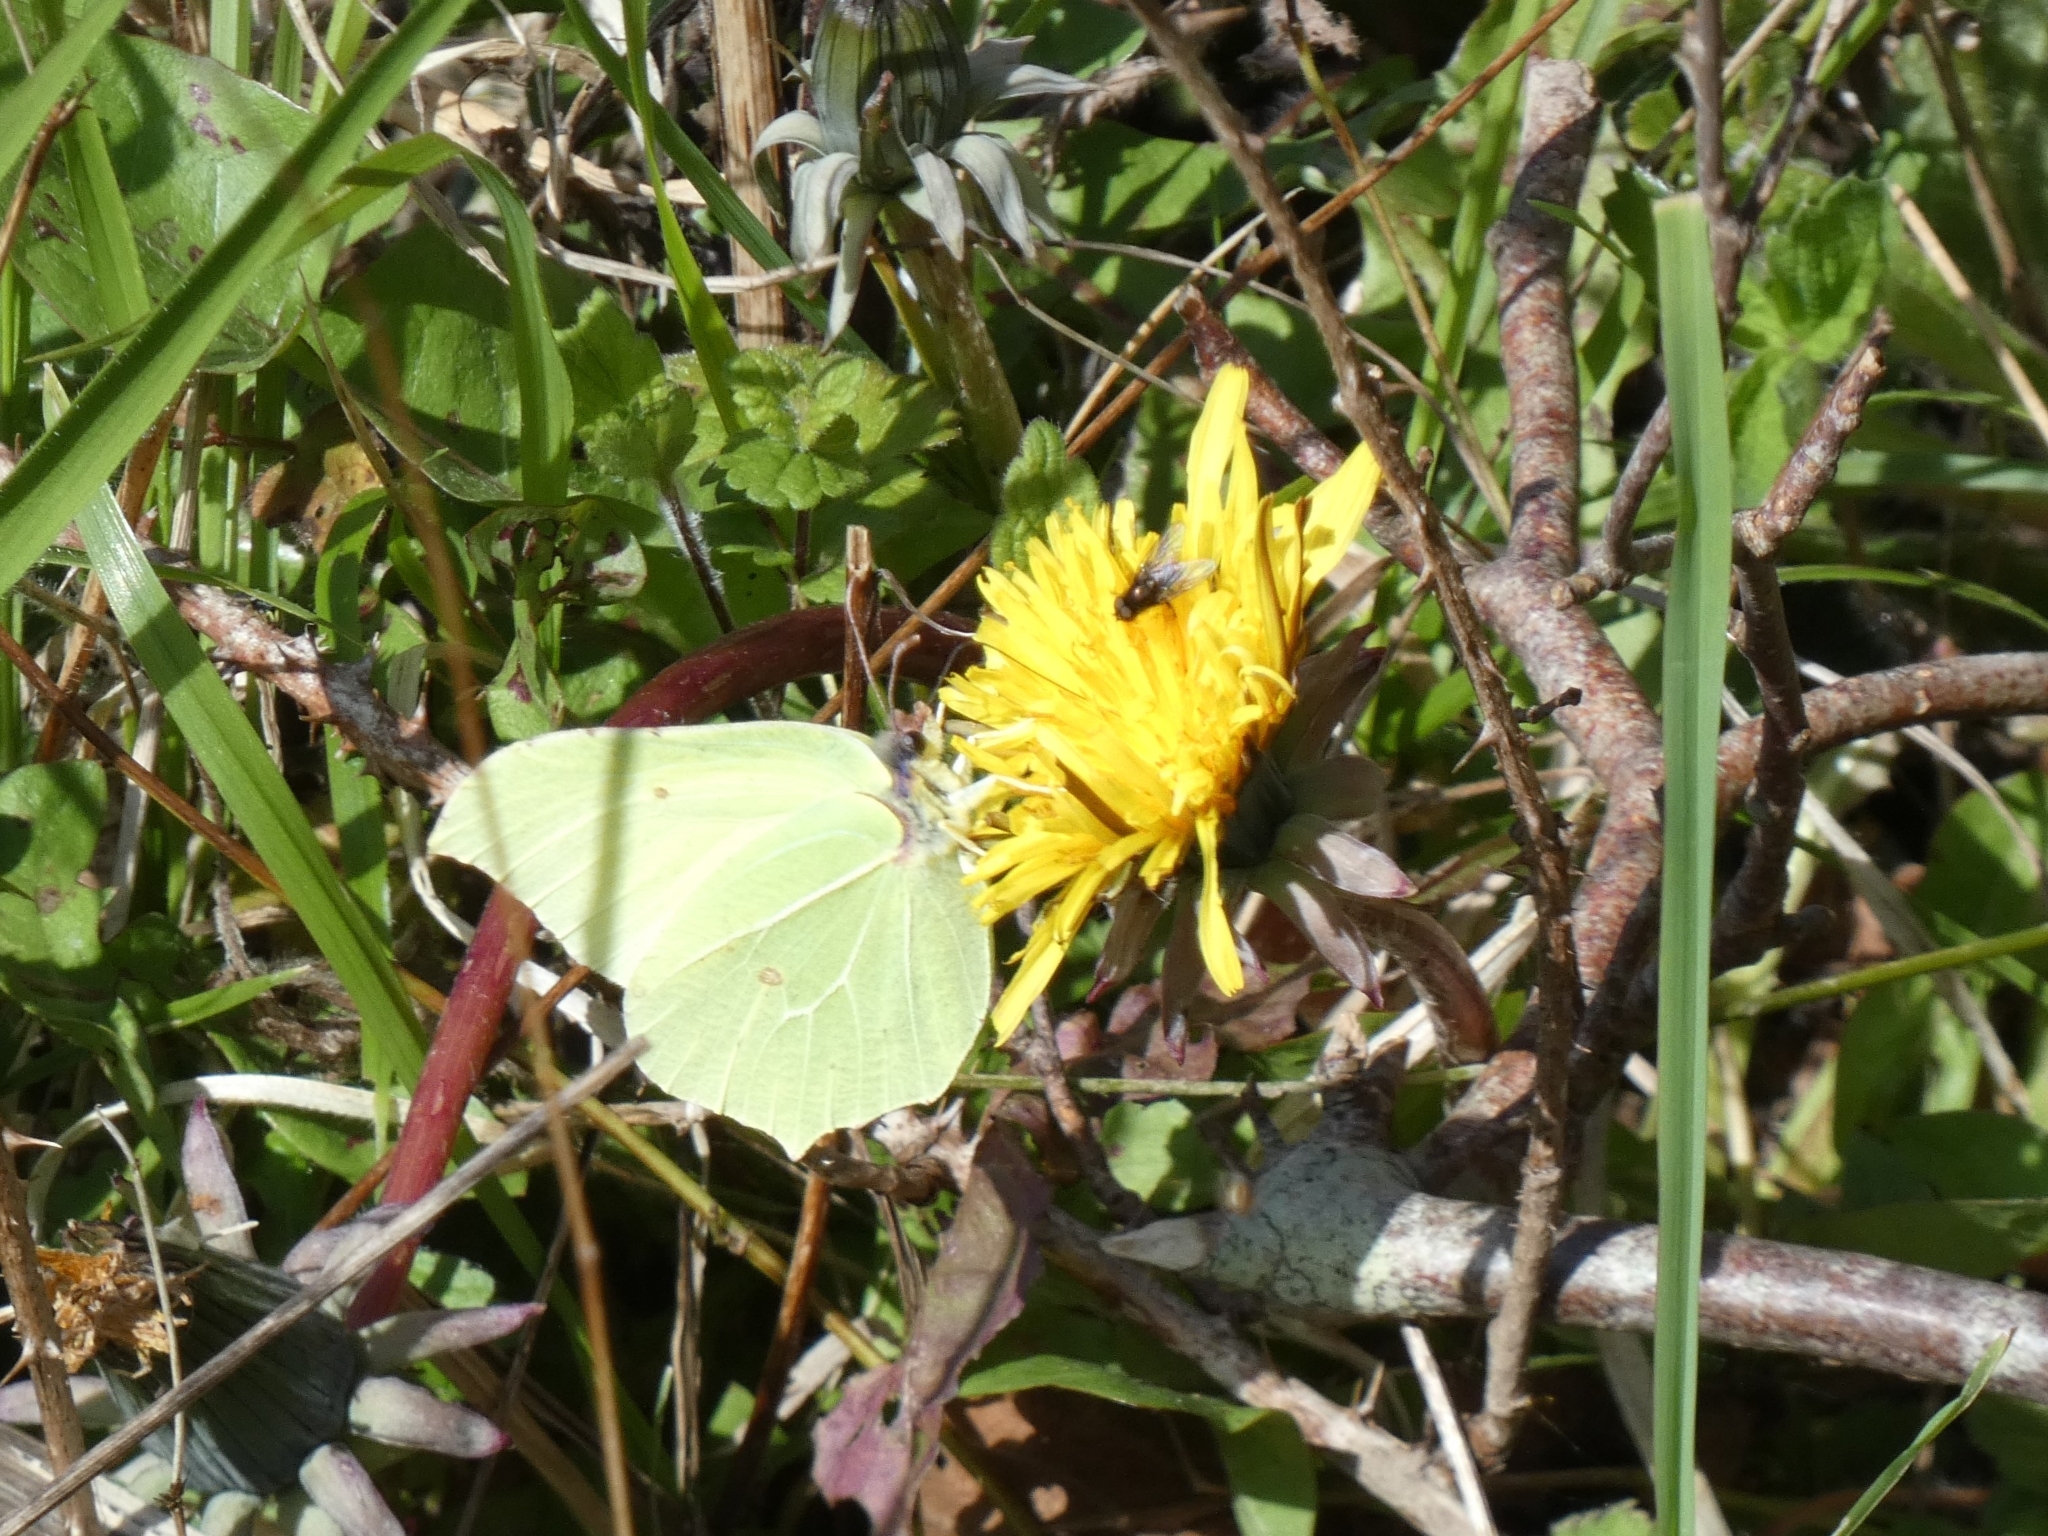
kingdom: Animalia
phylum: Arthropoda
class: Insecta
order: Lepidoptera
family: Pieridae
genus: Gonepteryx
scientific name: Gonepteryx rhamni
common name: Brimstone
